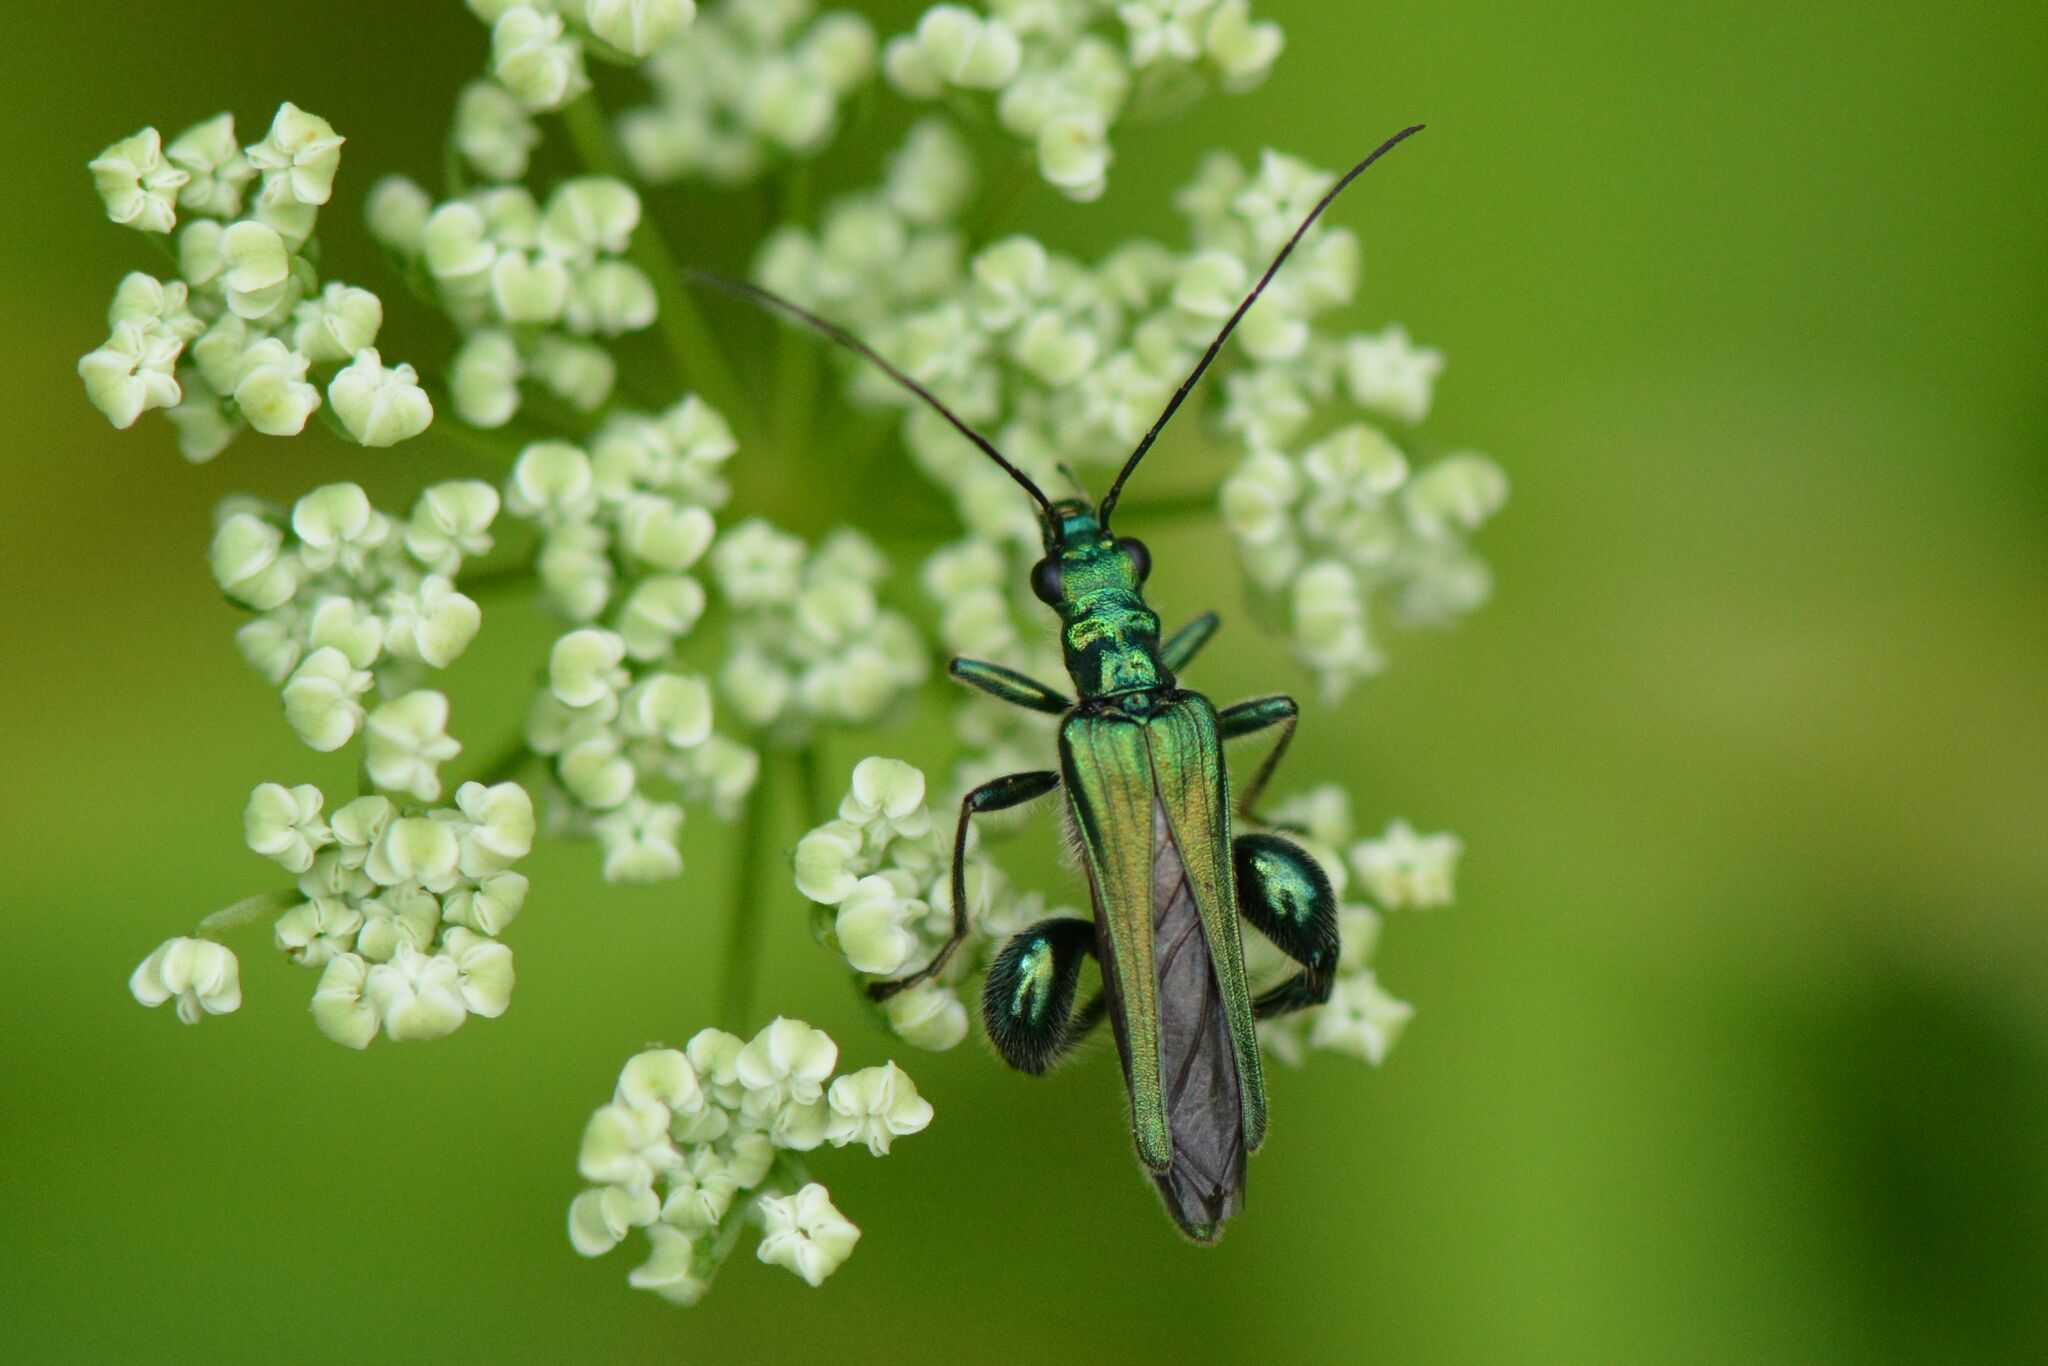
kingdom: Animalia
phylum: Arthropoda
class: Insecta
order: Coleoptera
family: Oedemeridae
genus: Oedemera
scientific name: Oedemera nobilis
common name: Swollen-thighed beetle
